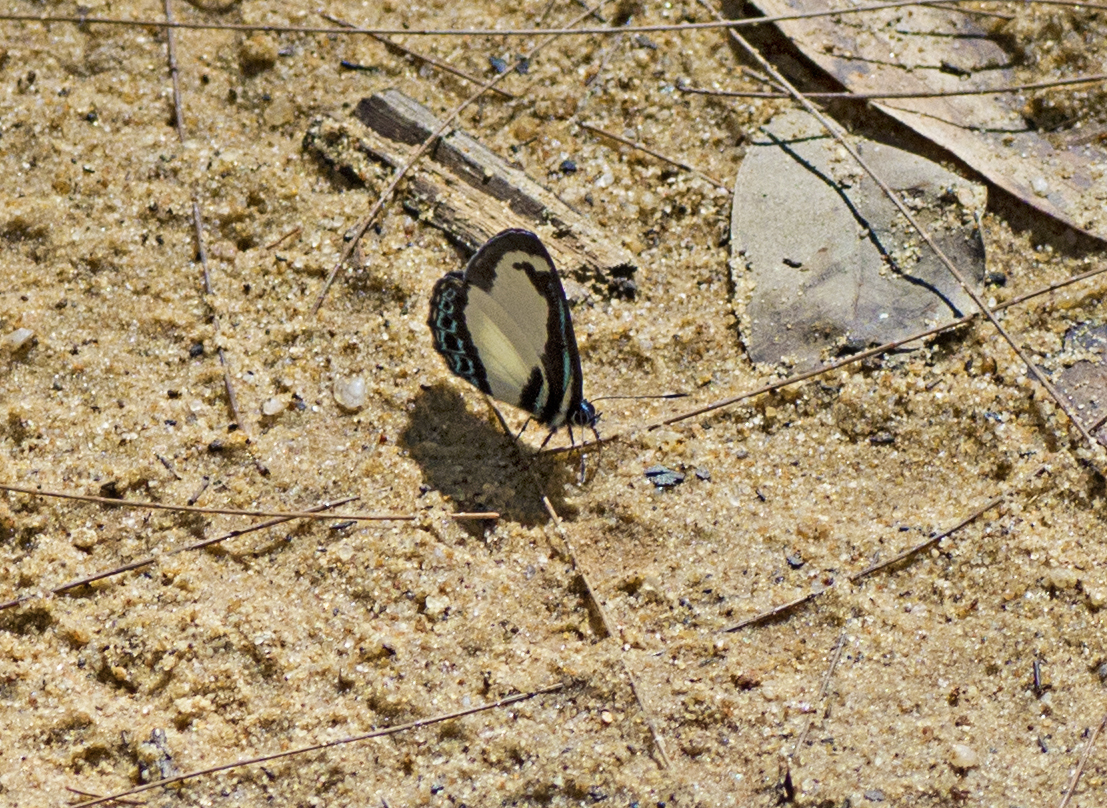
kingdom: Animalia
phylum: Arthropoda
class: Insecta
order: Lepidoptera
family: Lycaenidae
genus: Psychonotis
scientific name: Psychonotis caelius
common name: Small green banded blue
